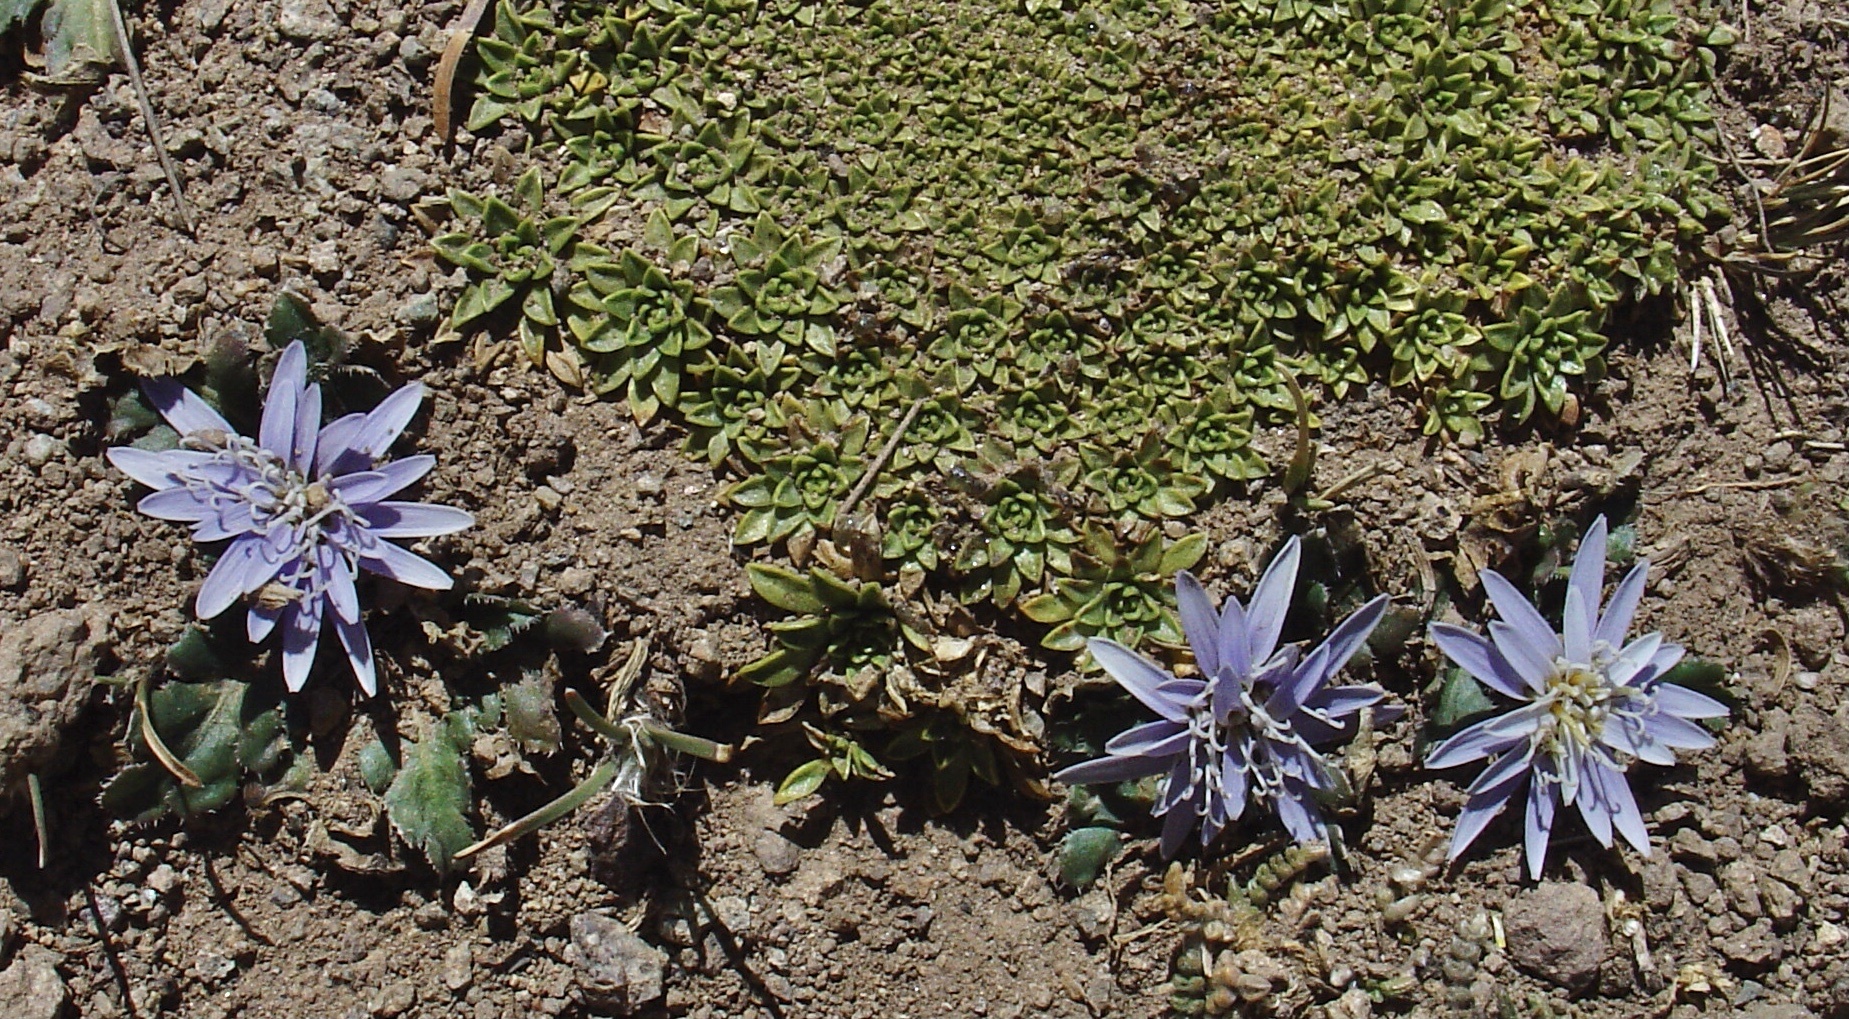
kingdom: Plantae
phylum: Tracheophyta
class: Magnoliopsida
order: Asterales
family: Asteraceae
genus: Perezia
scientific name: Perezia pinnatifida
